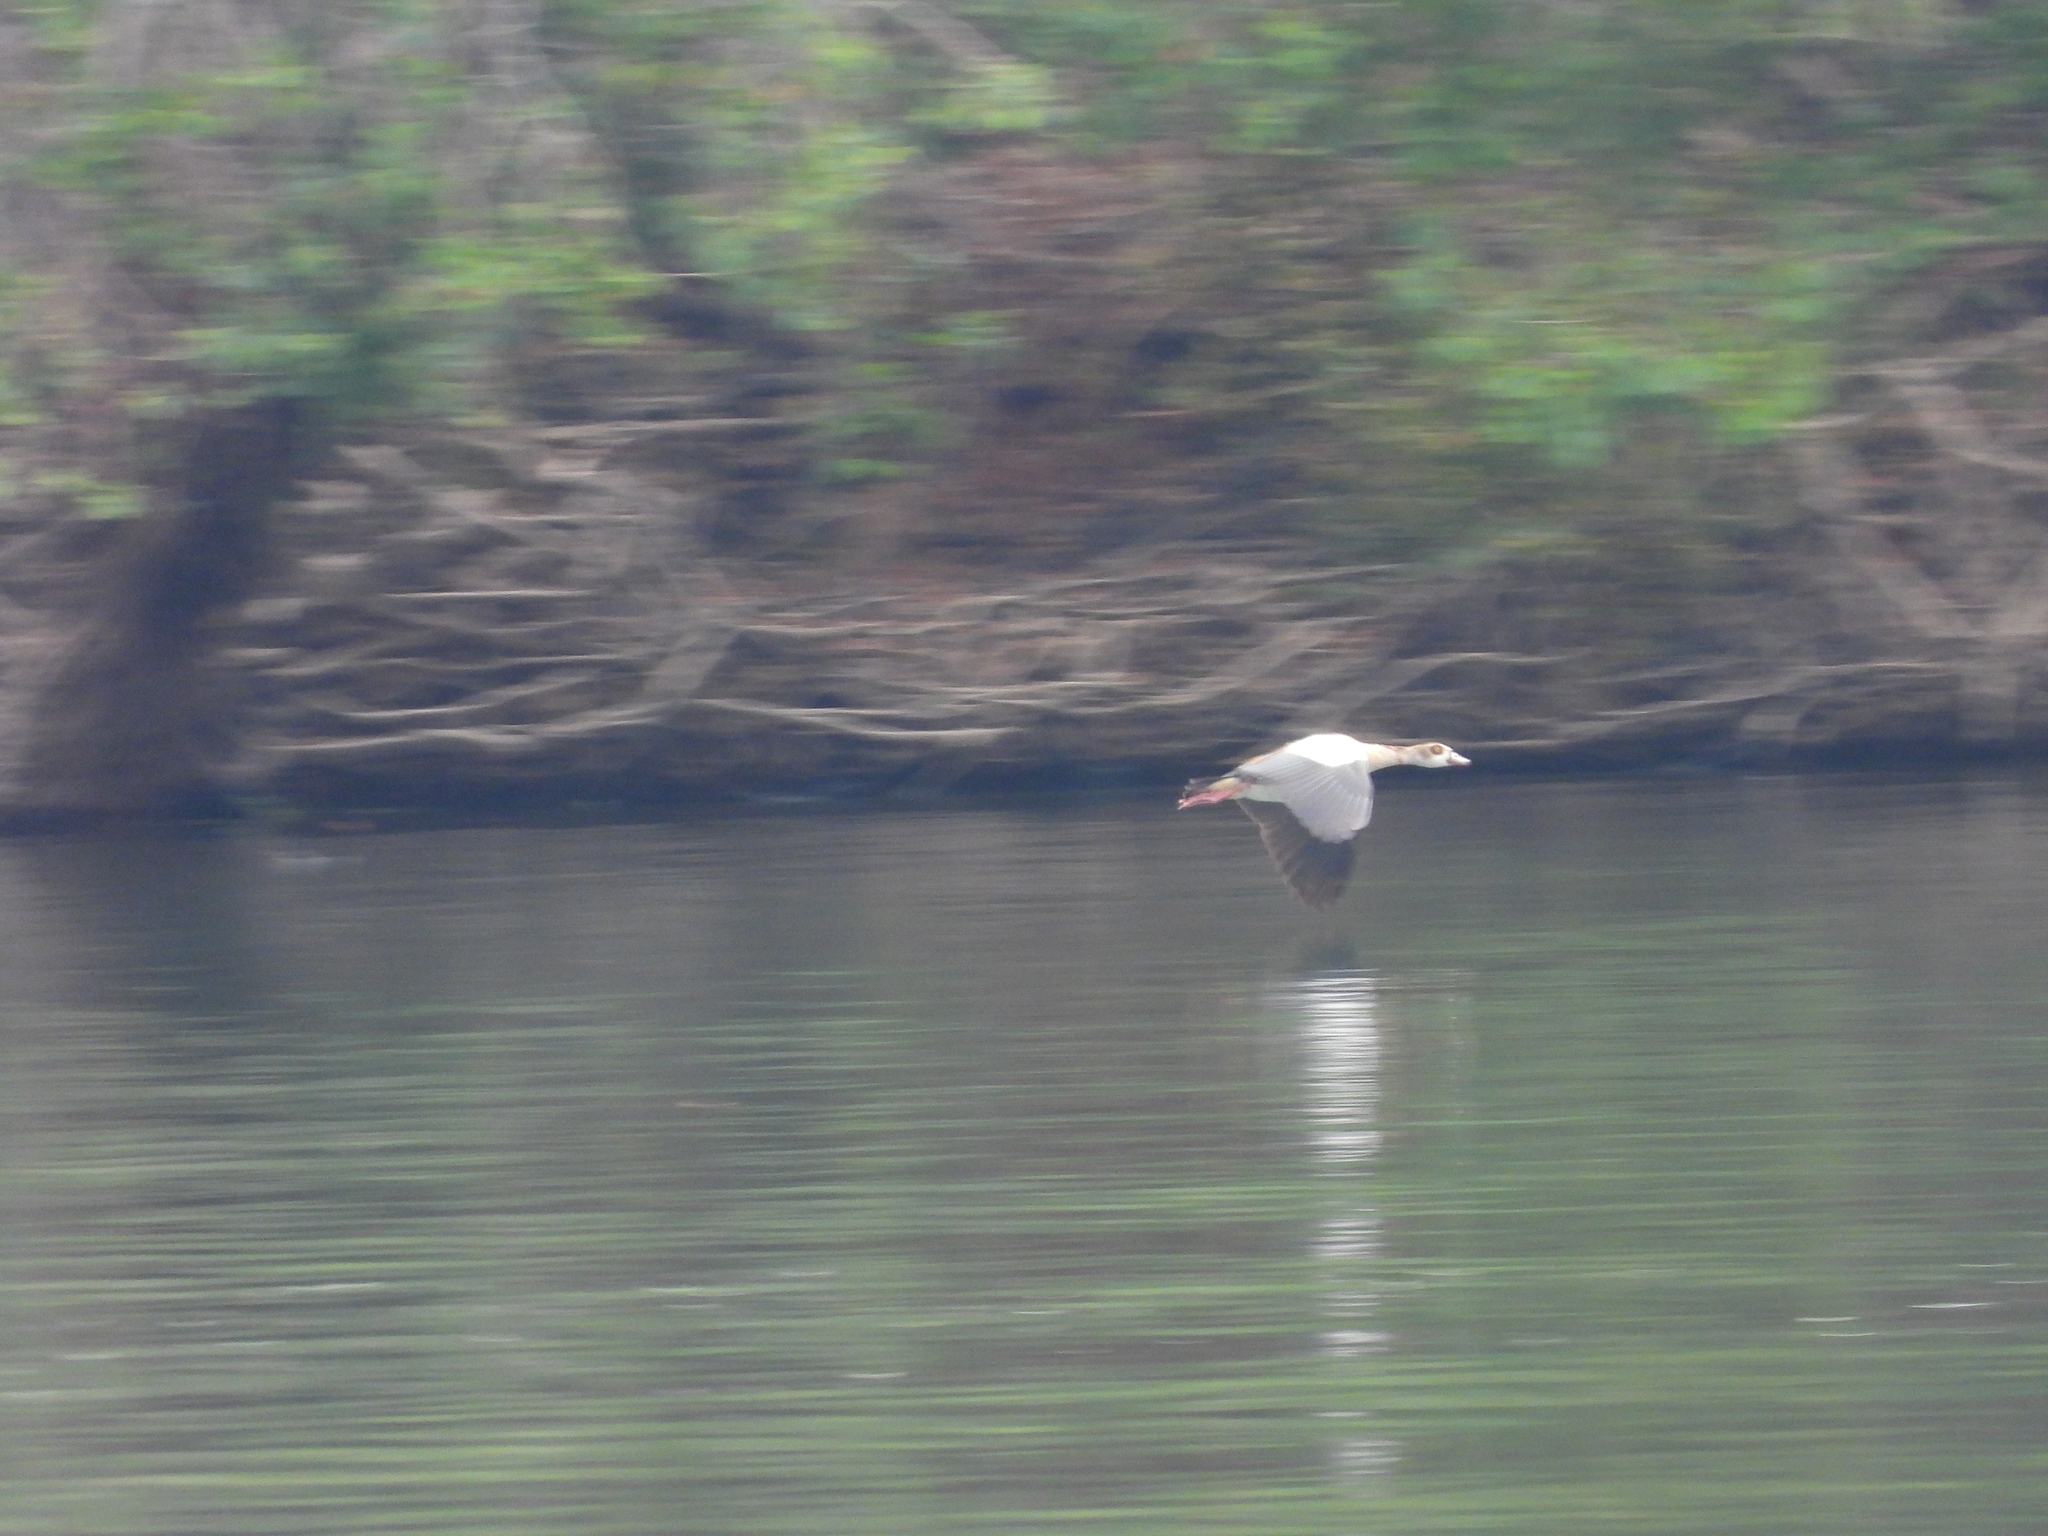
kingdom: Animalia
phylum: Chordata
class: Aves
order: Anseriformes
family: Anatidae
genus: Alopochen
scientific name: Alopochen aegyptiaca
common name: Egyptian goose
